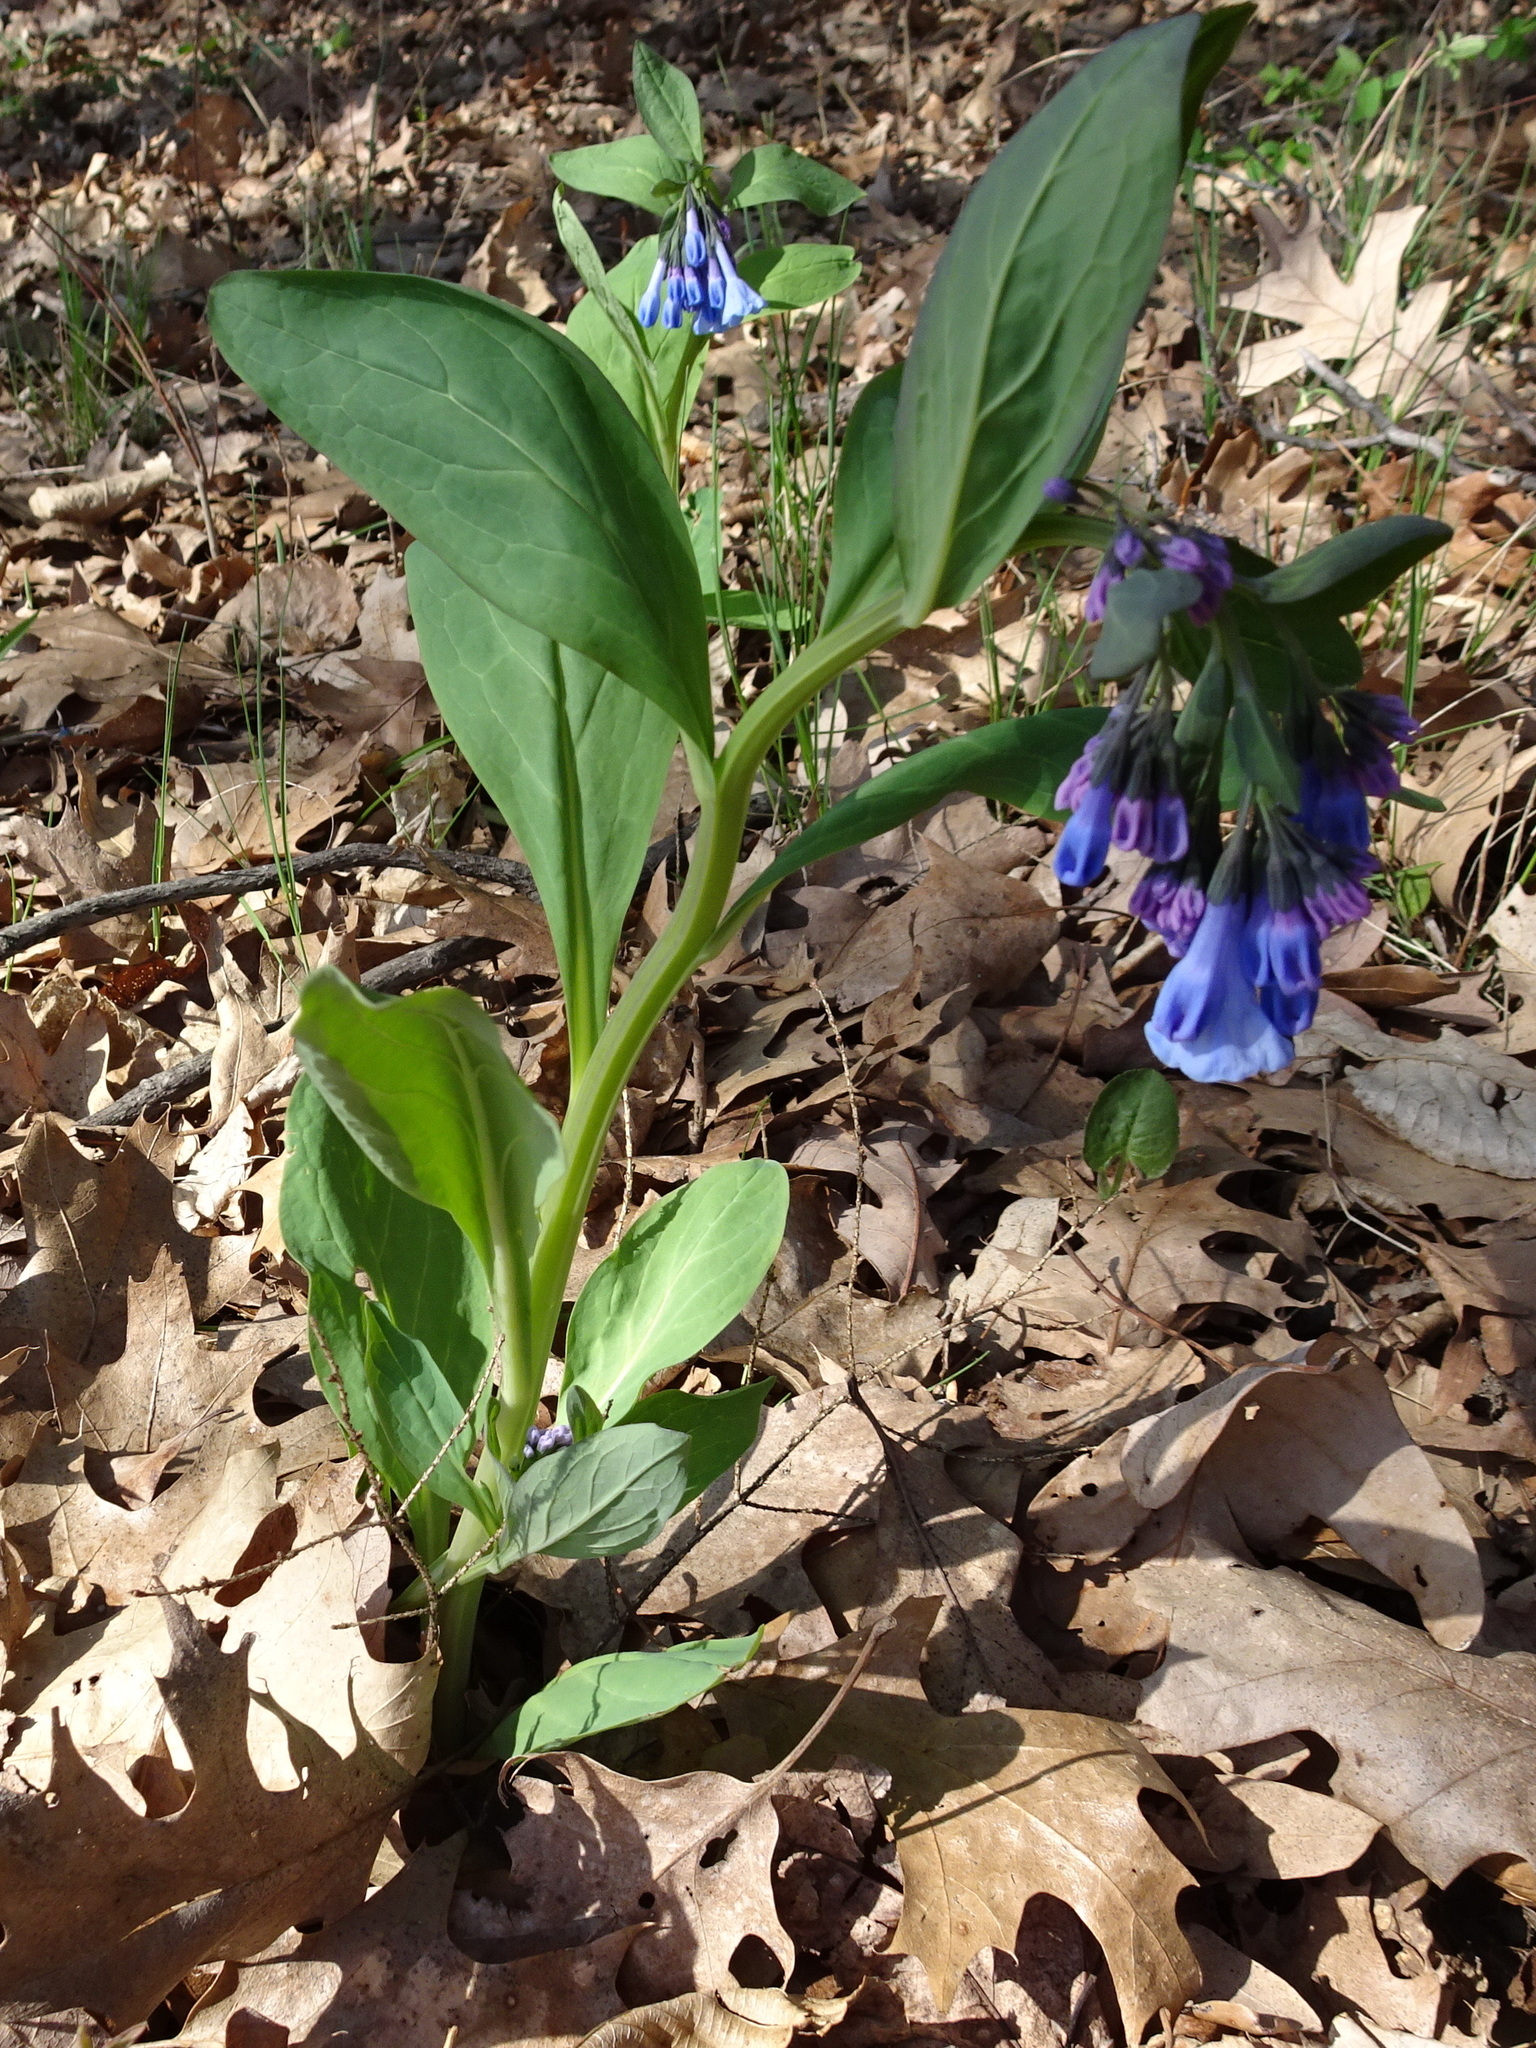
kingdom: Plantae
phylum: Tracheophyta
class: Magnoliopsida
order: Boraginales
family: Boraginaceae
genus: Mertensia
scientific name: Mertensia virginica
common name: Virginia bluebells
